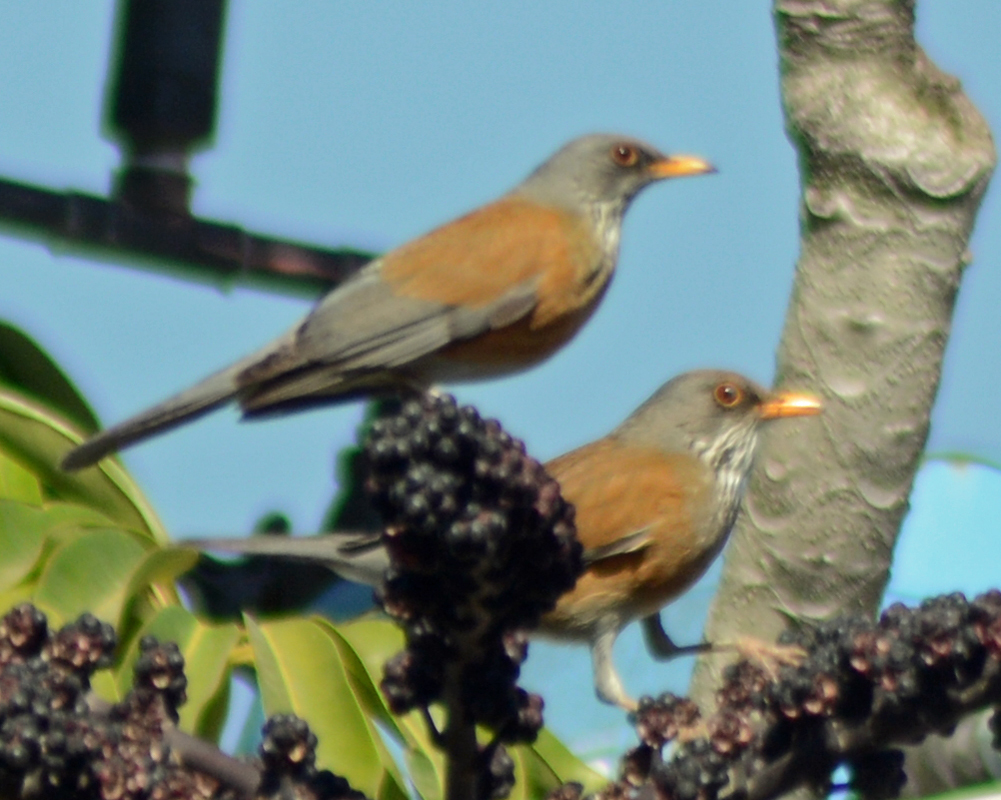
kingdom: Animalia
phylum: Chordata
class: Aves
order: Passeriformes
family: Turdidae
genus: Turdus
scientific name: Turdus rufopalliatus
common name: Rufous-backed robin
